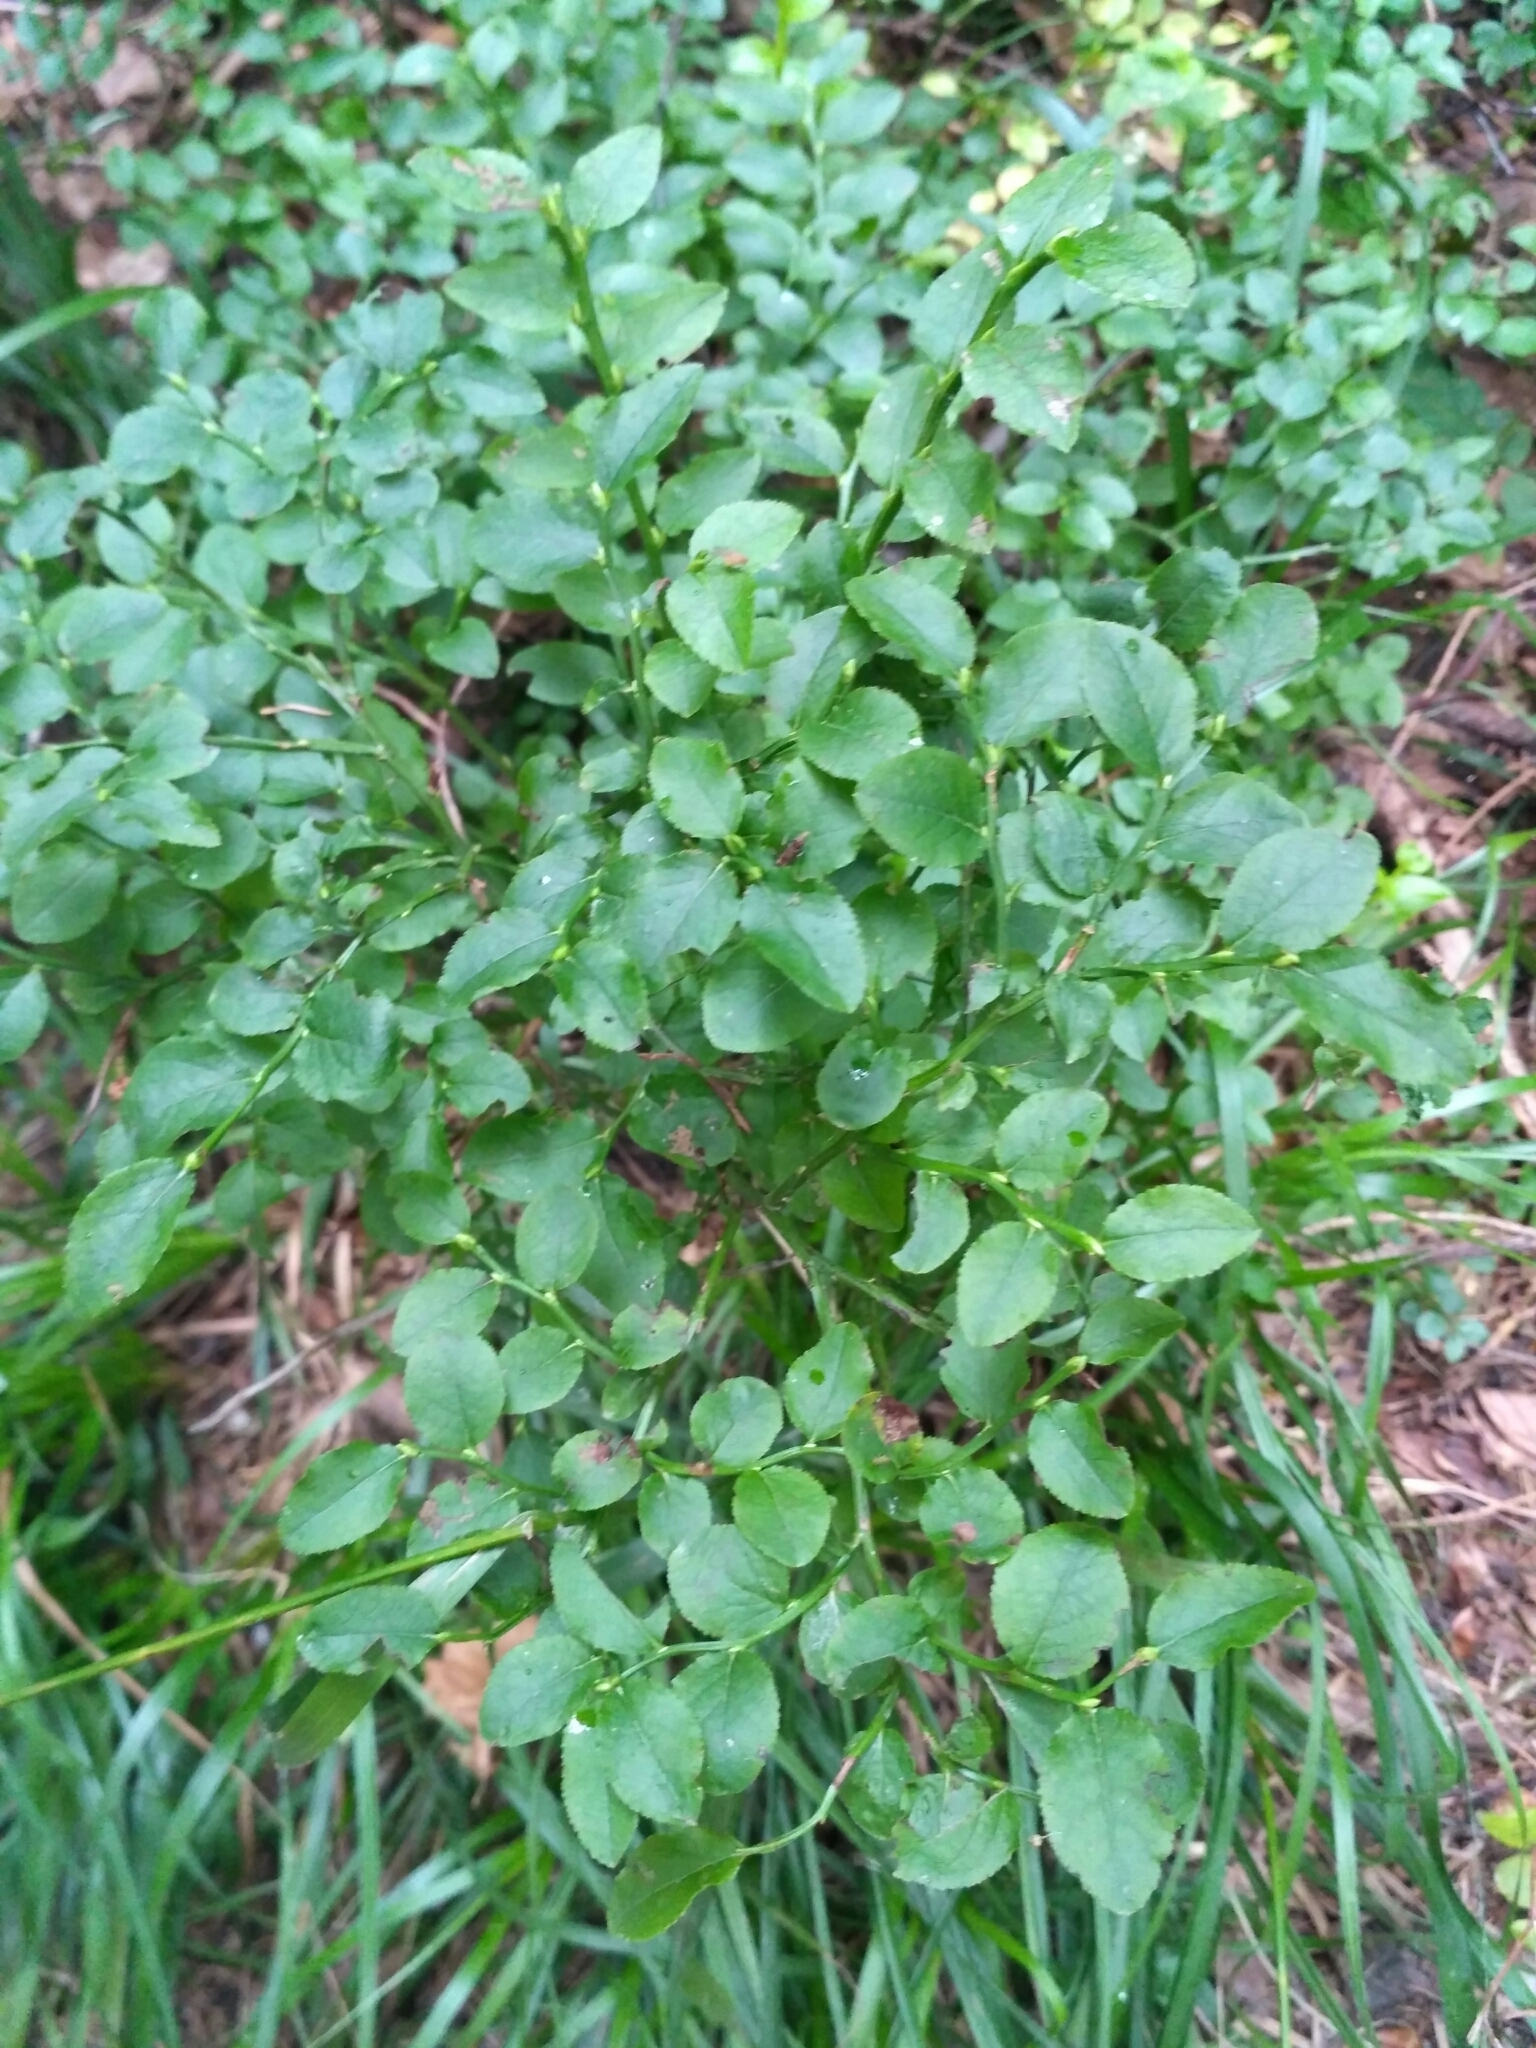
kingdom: Plantae
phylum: Tracheophyta
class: Magnoliopsida
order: Ericales
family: Ericaceae
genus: Vaccinium
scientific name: Vaccinium myrtillus
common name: Bilberry
